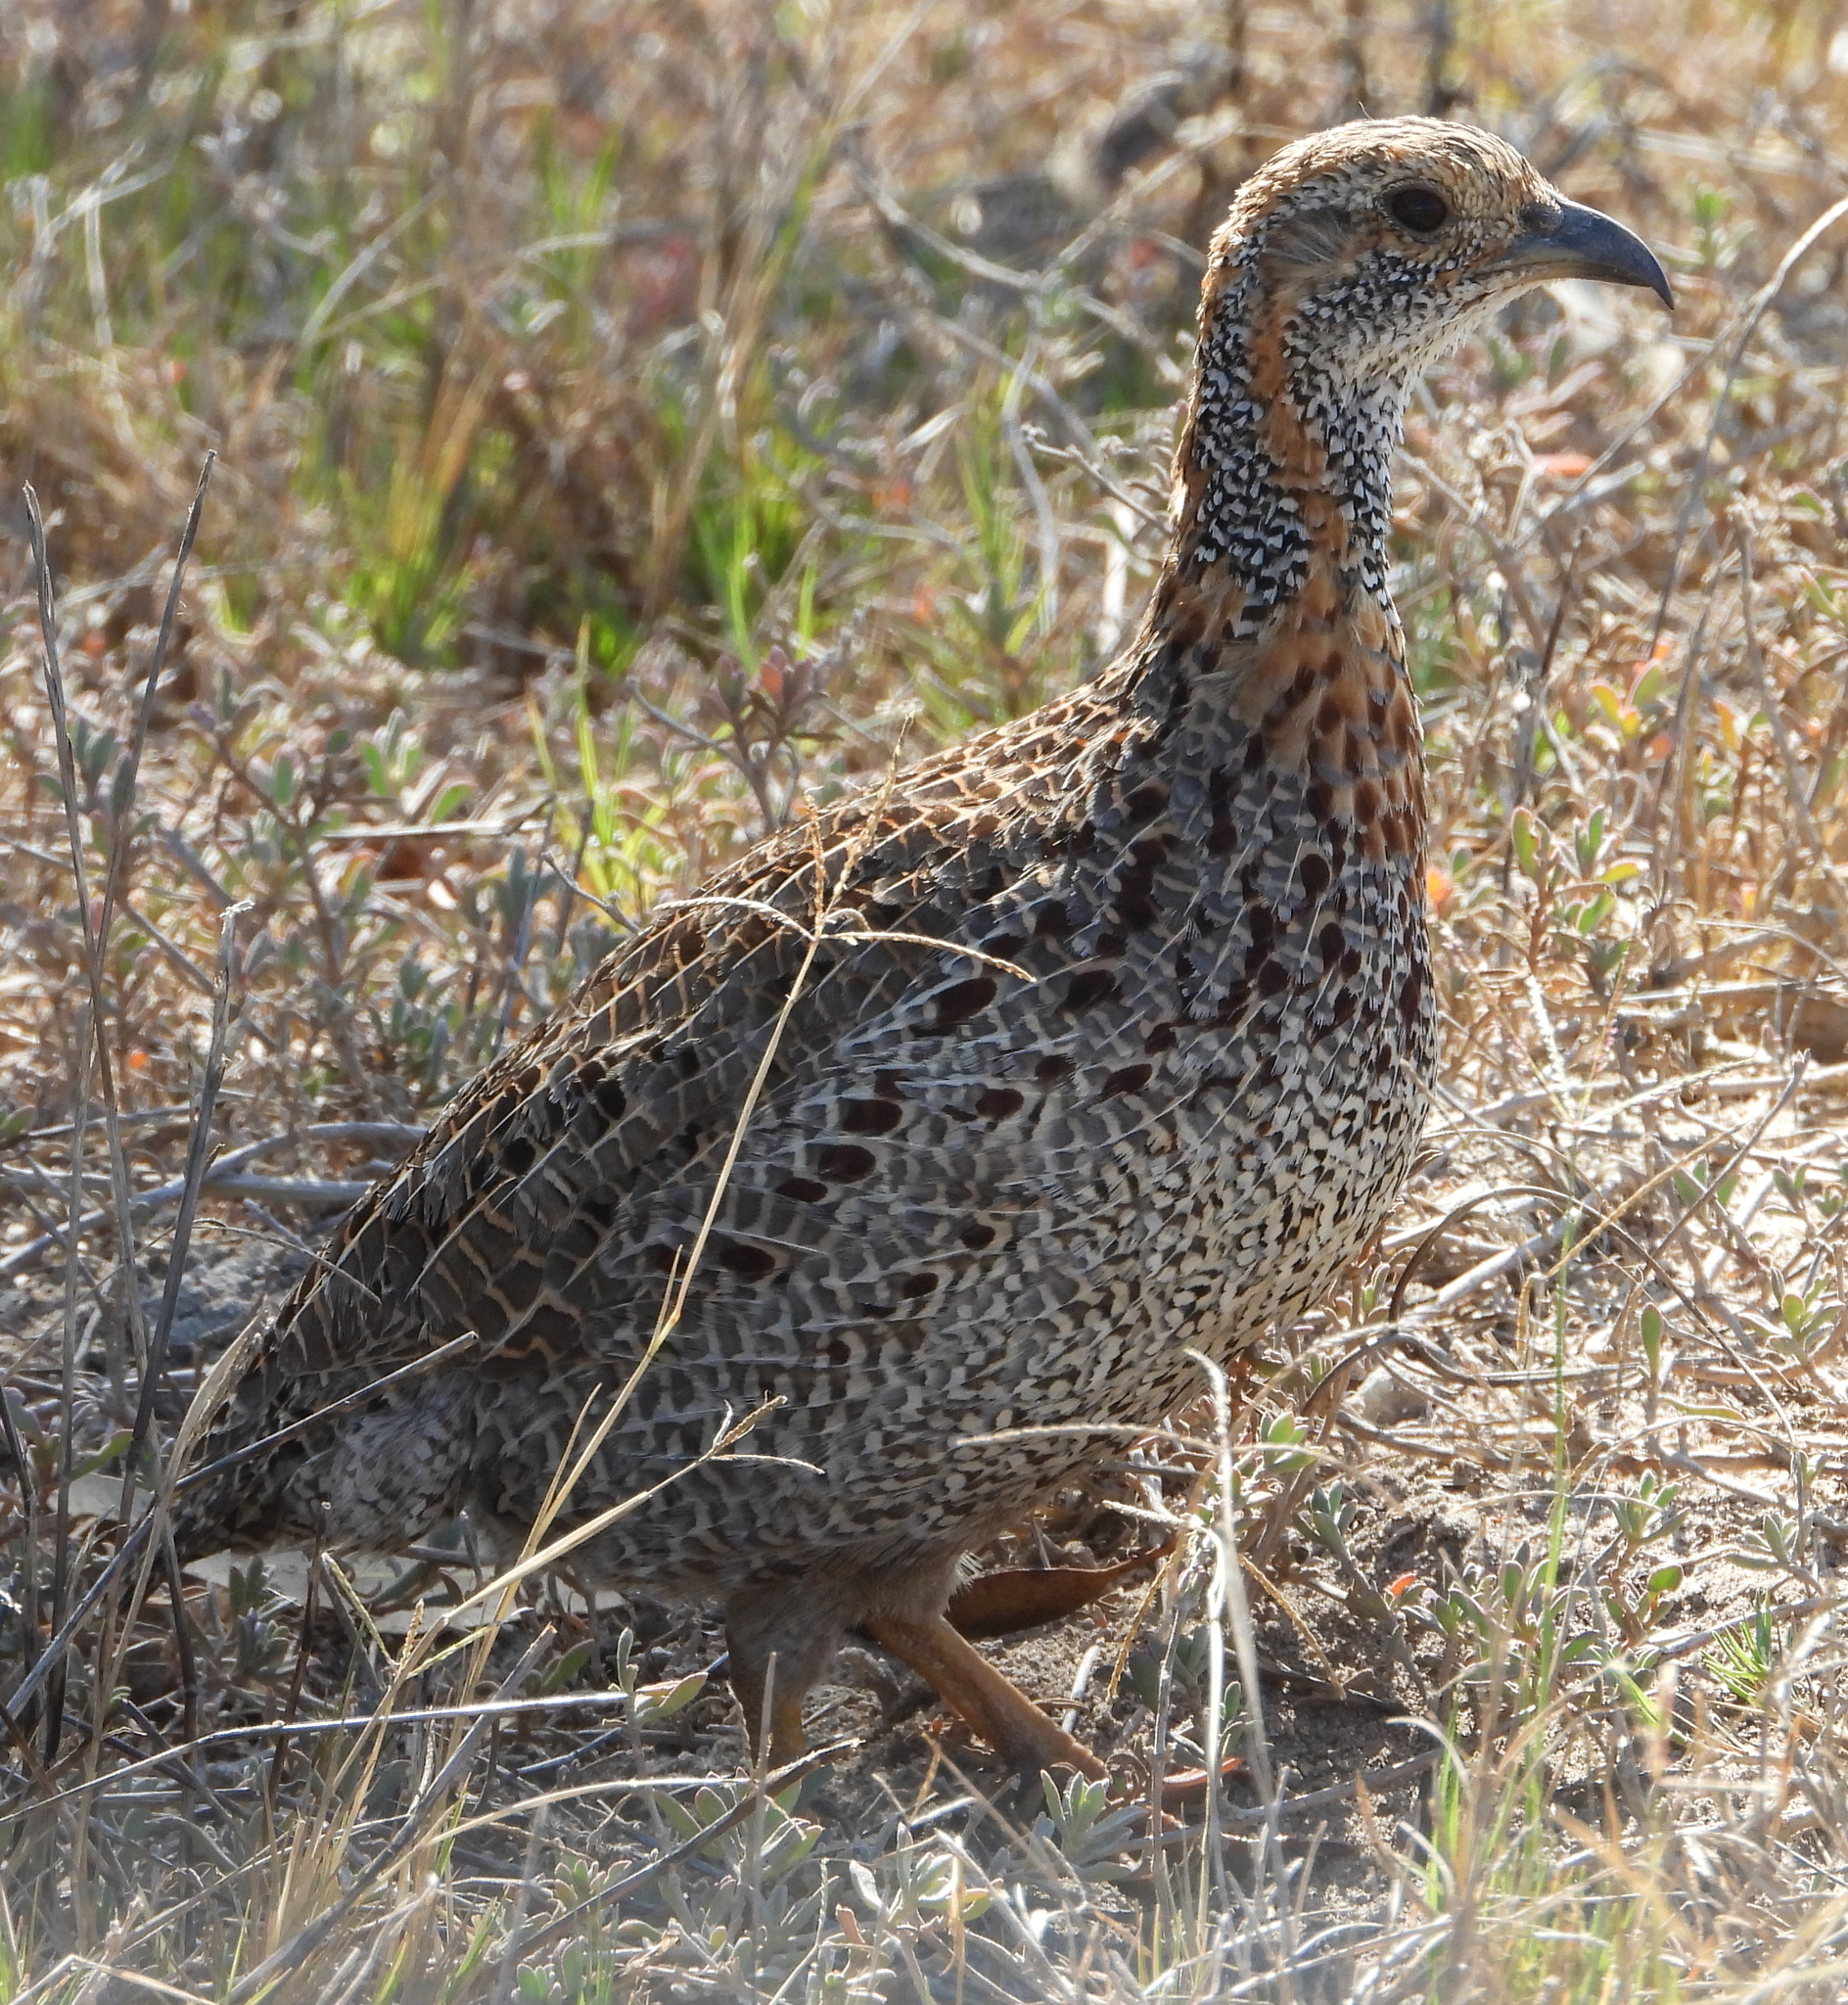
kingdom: Animalia
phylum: Chordata
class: Aves
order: Galliformes
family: Phasianidae
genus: Scleroptila
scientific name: Scleroptila afra
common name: Grey-winged francolin
